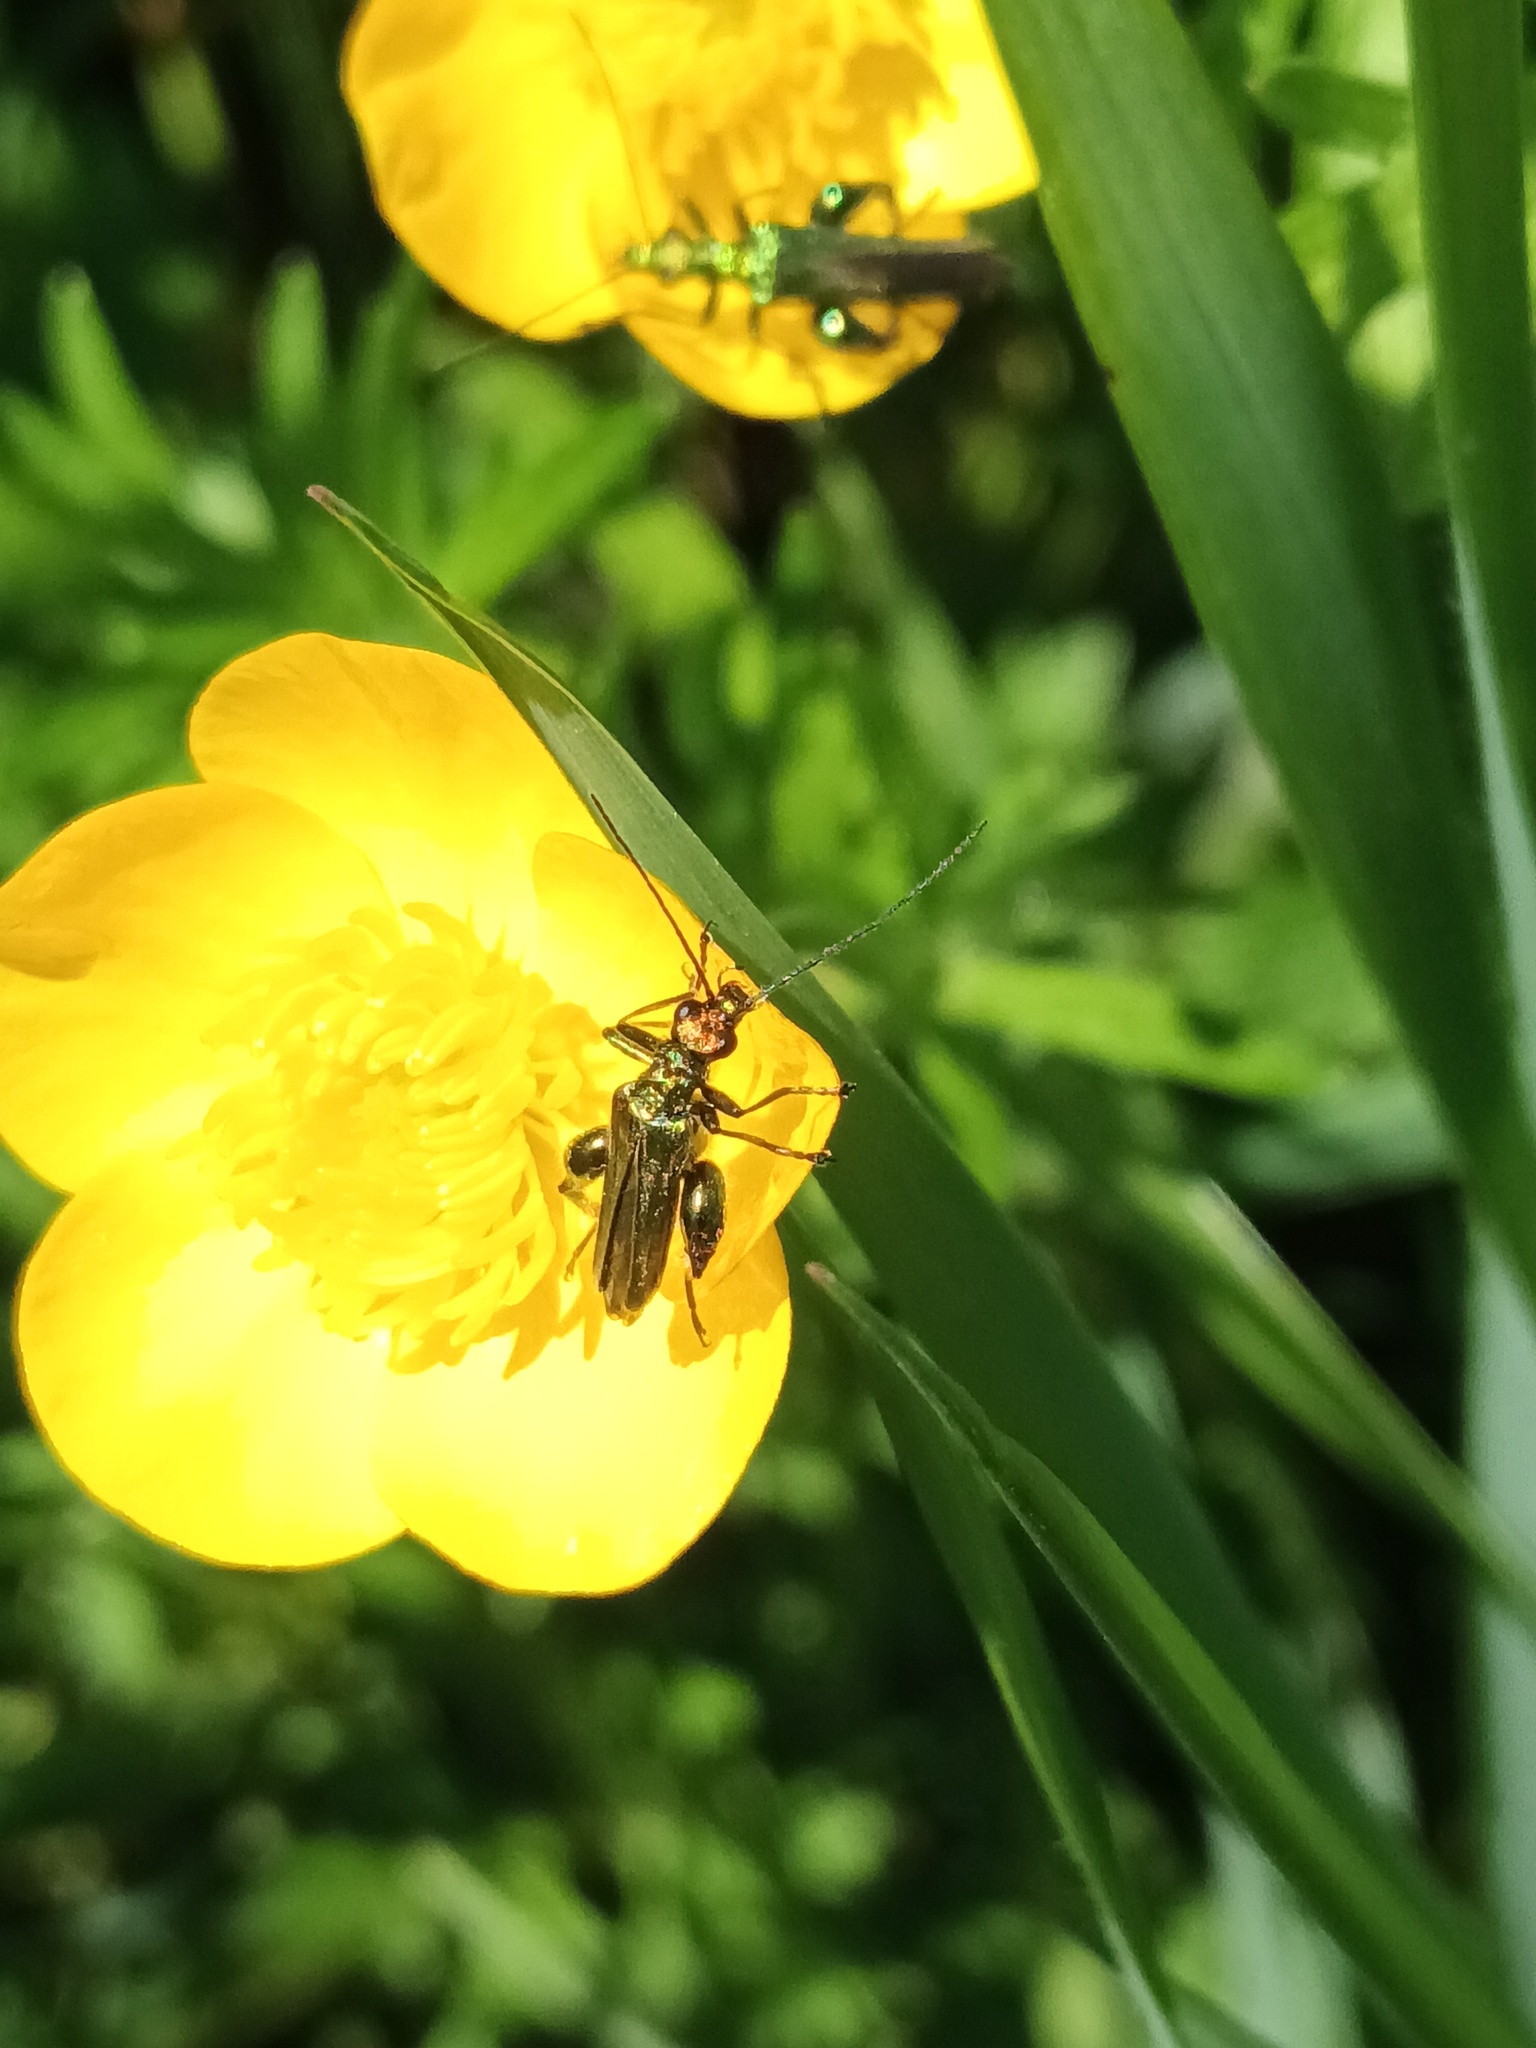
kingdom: Animalia
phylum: Arthropoda
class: Insecta
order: Coleoptera
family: Oedemeridae
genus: Oedemera
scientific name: Oedemera nobilis
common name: Swollen-thighed beetle
